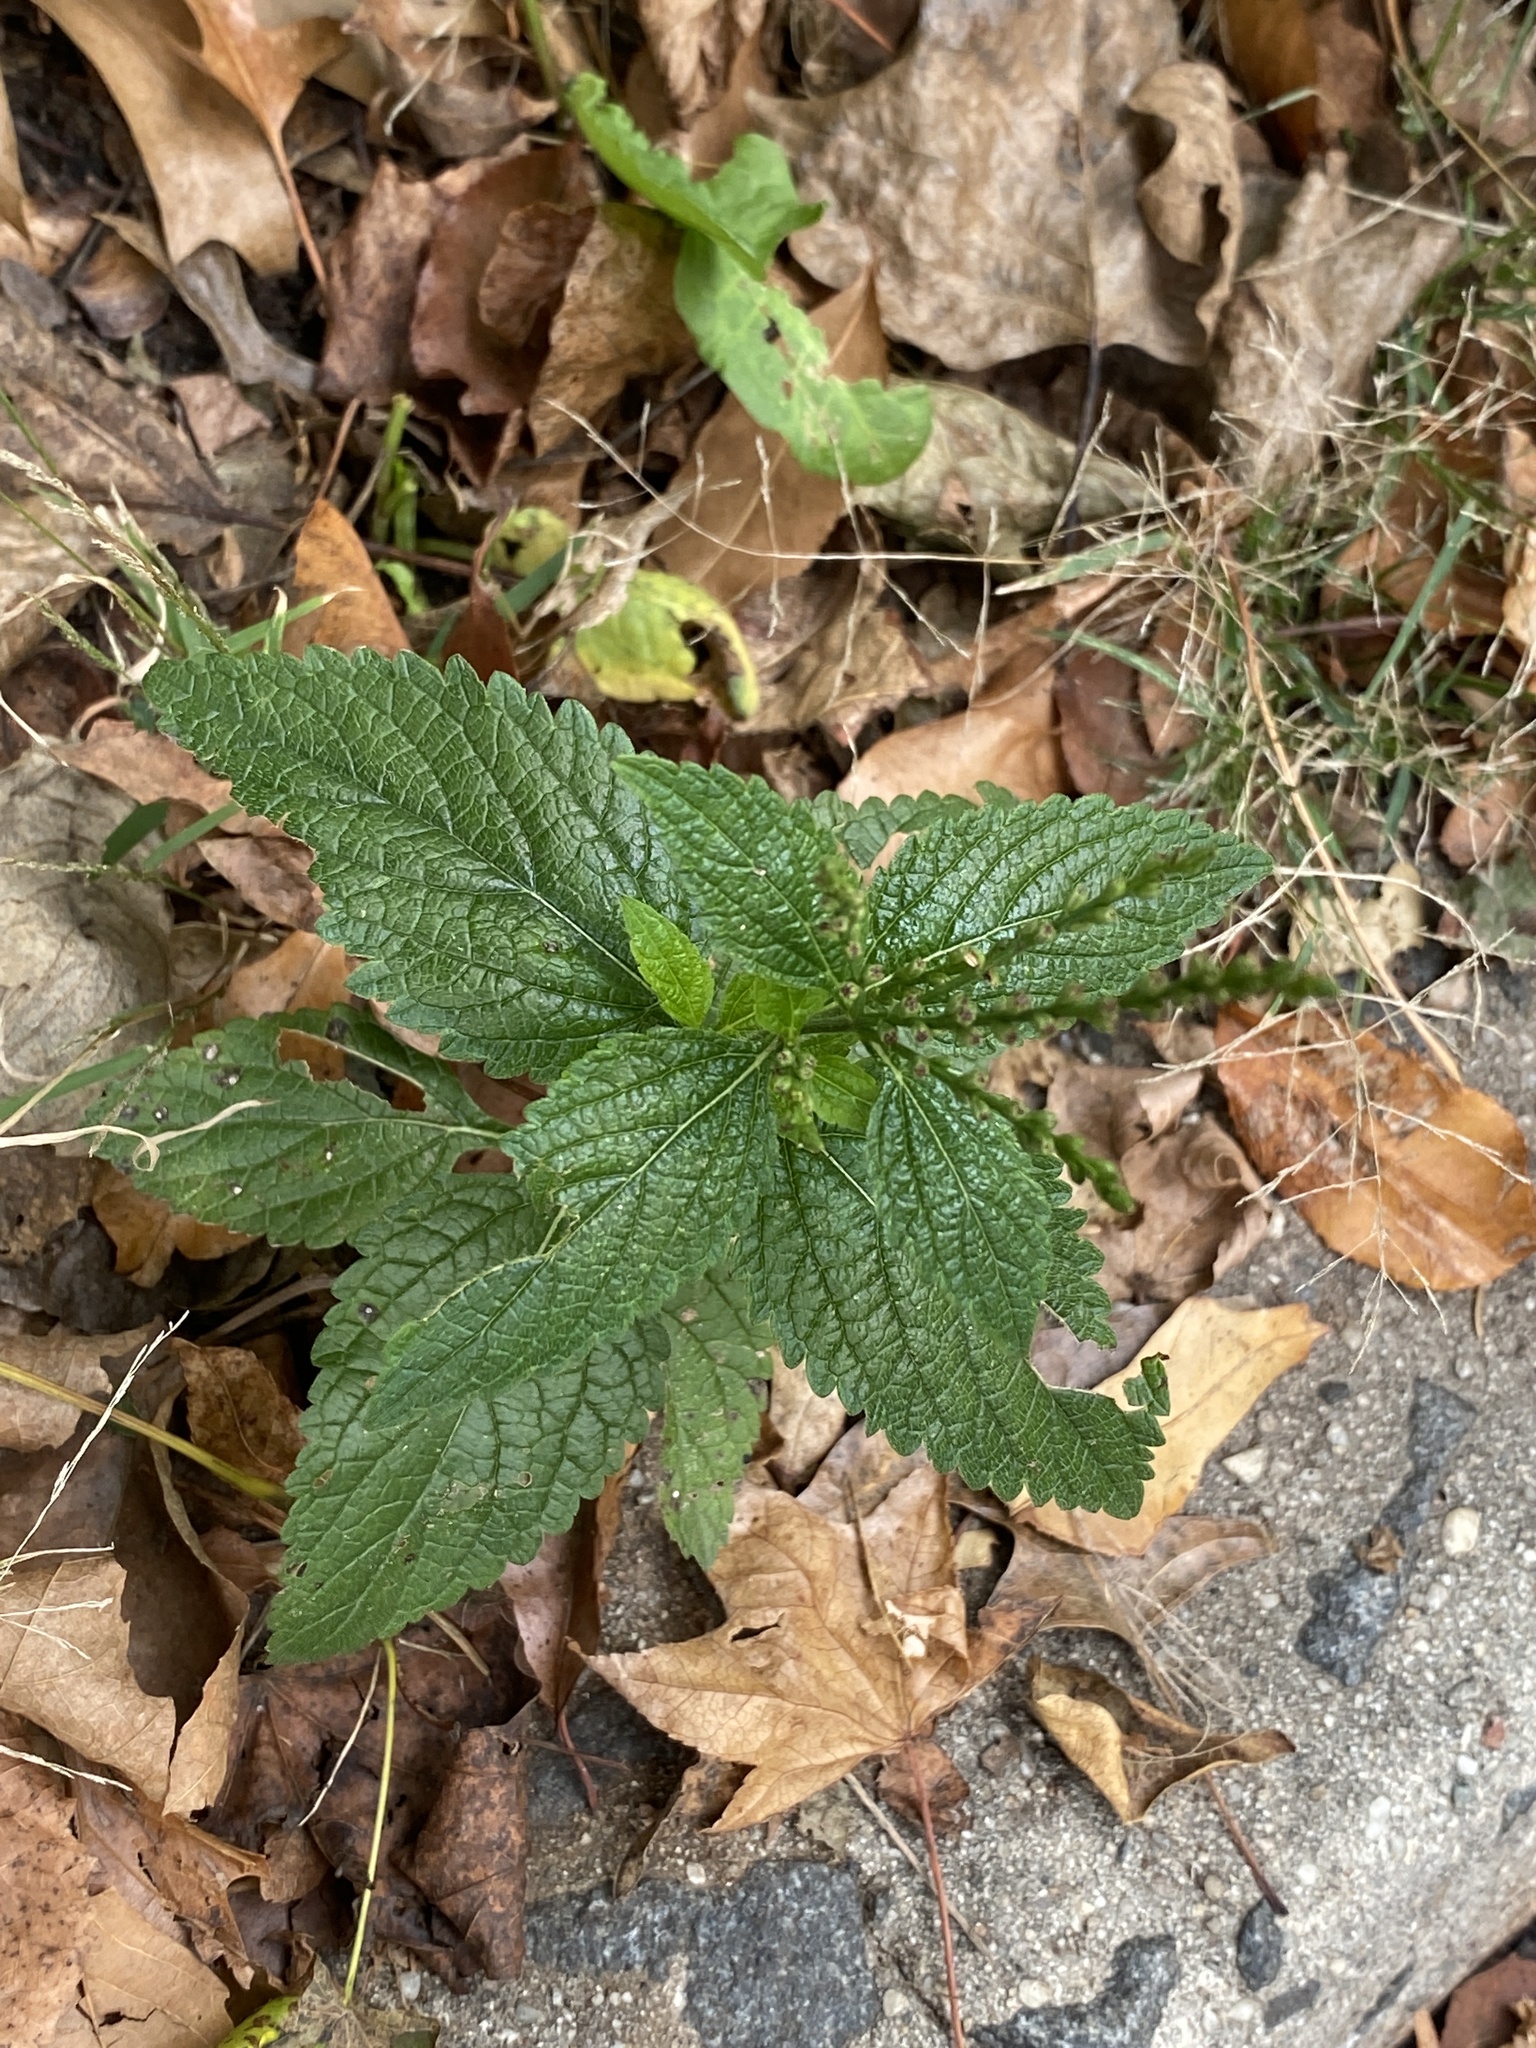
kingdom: Plantae
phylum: Tracheophyta
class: Magnoliopsida
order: Lamiales
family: Verbenaceae
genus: Verbena
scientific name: Verbena urticifolia
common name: Nettle-leaved vervain
